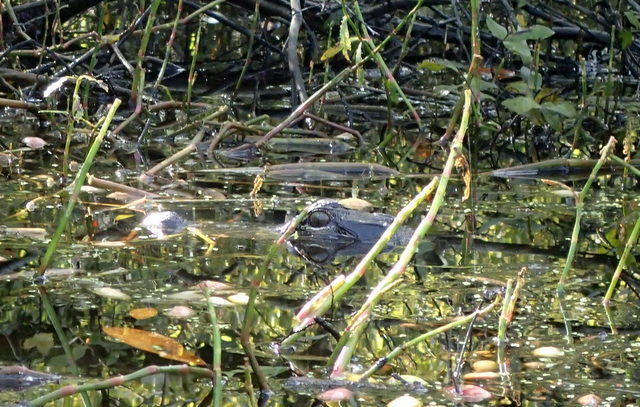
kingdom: Animalia
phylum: Chordata
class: Crocodylia
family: Alligatoridae
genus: Alligator
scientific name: Alligator mississippiensis
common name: American alligator
